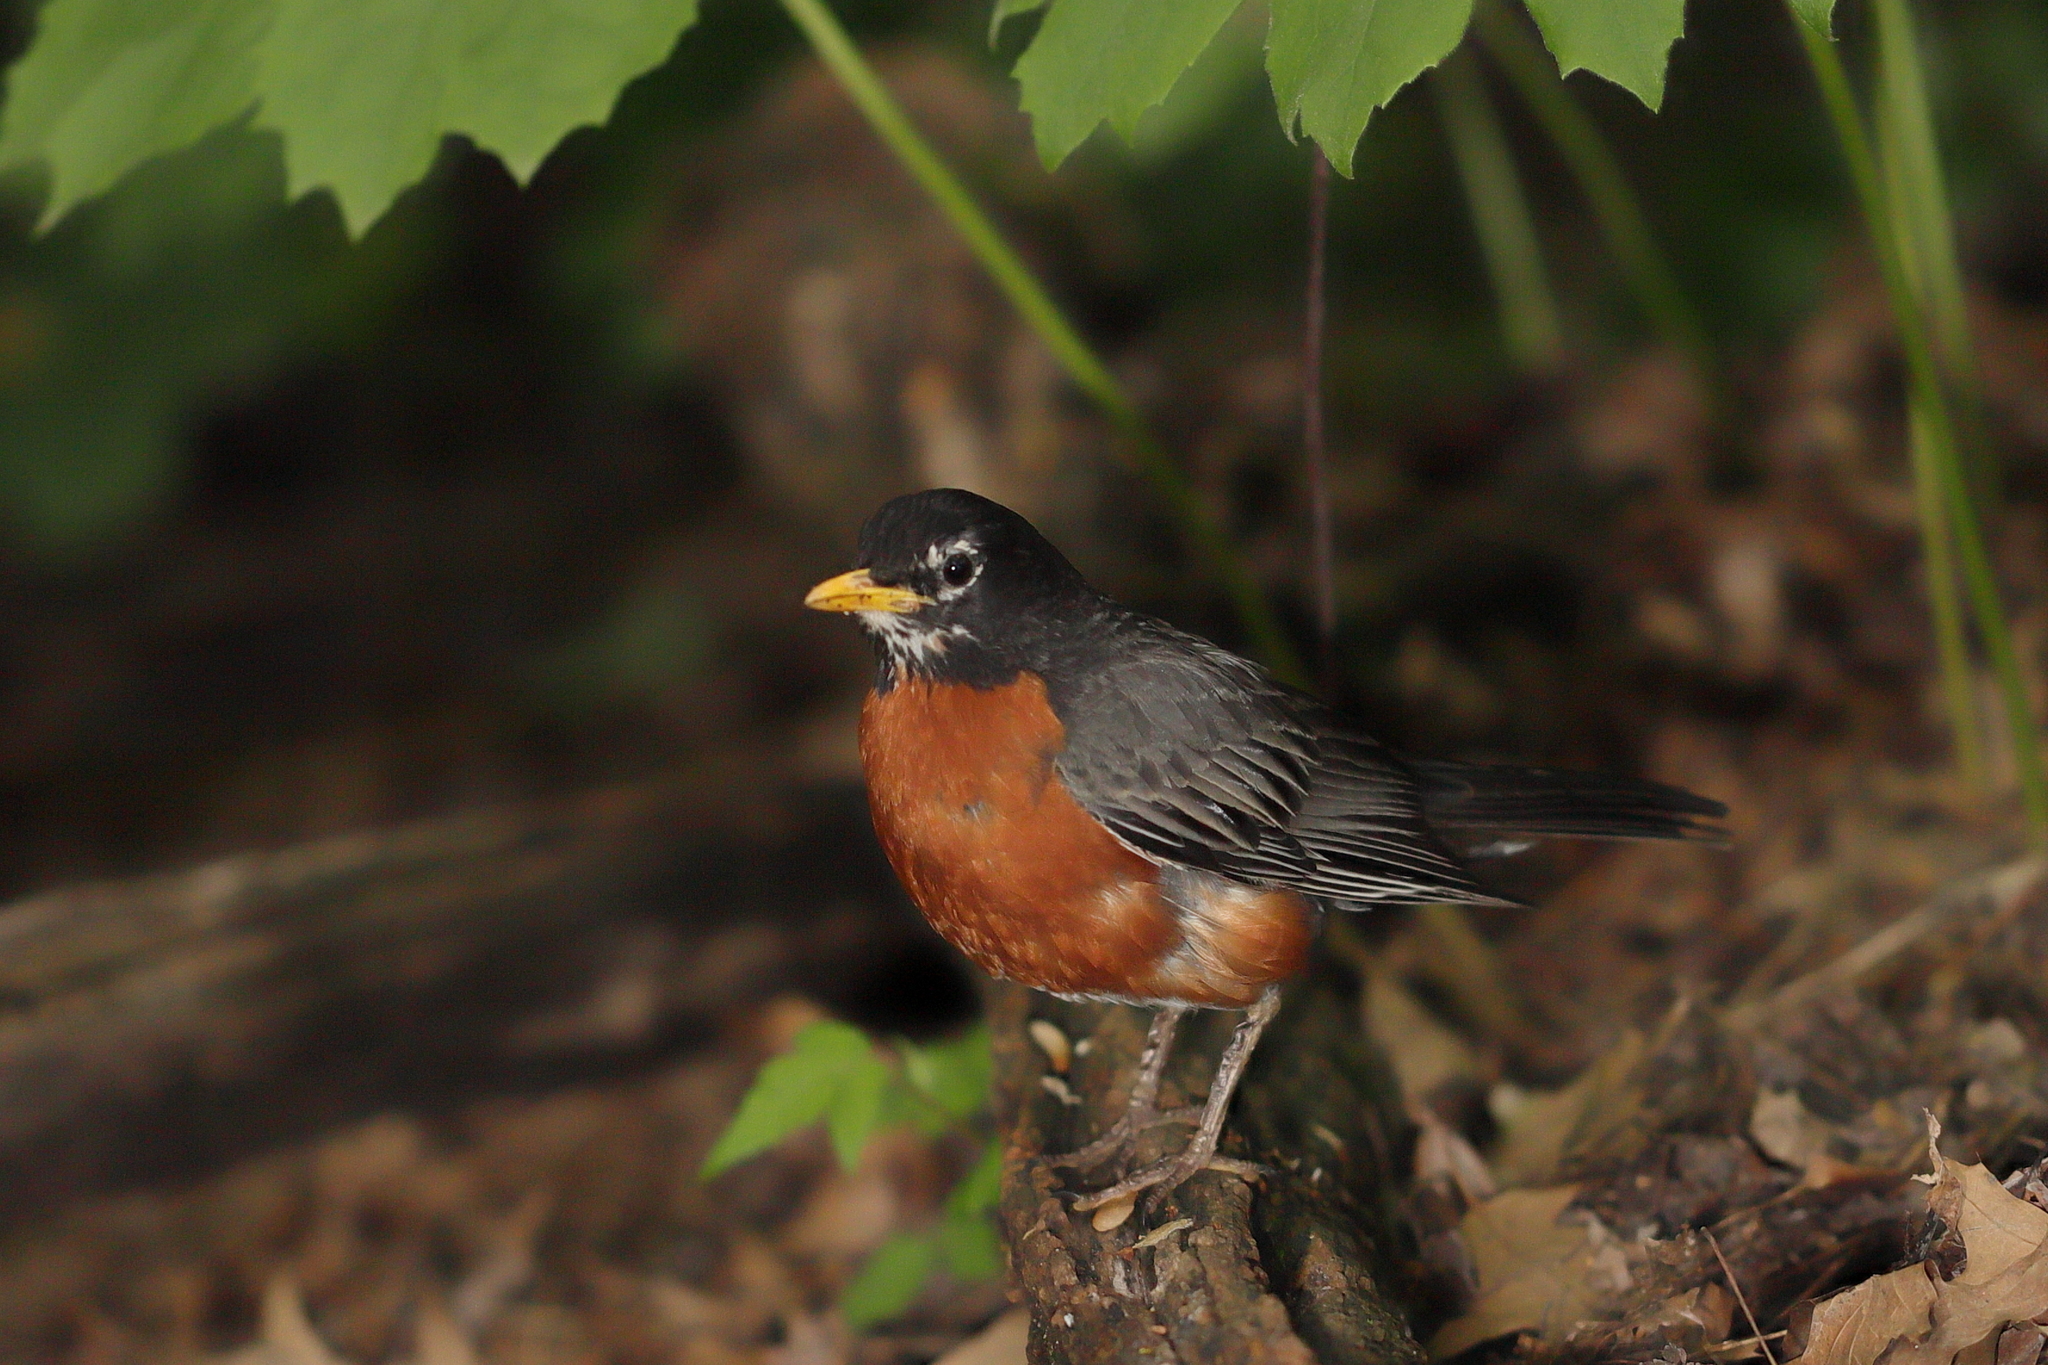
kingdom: Animalia
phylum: Chordata
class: Aves
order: Passeriformes
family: Turdidae
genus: Turdus
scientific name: Turdus migratorius
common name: American robin
